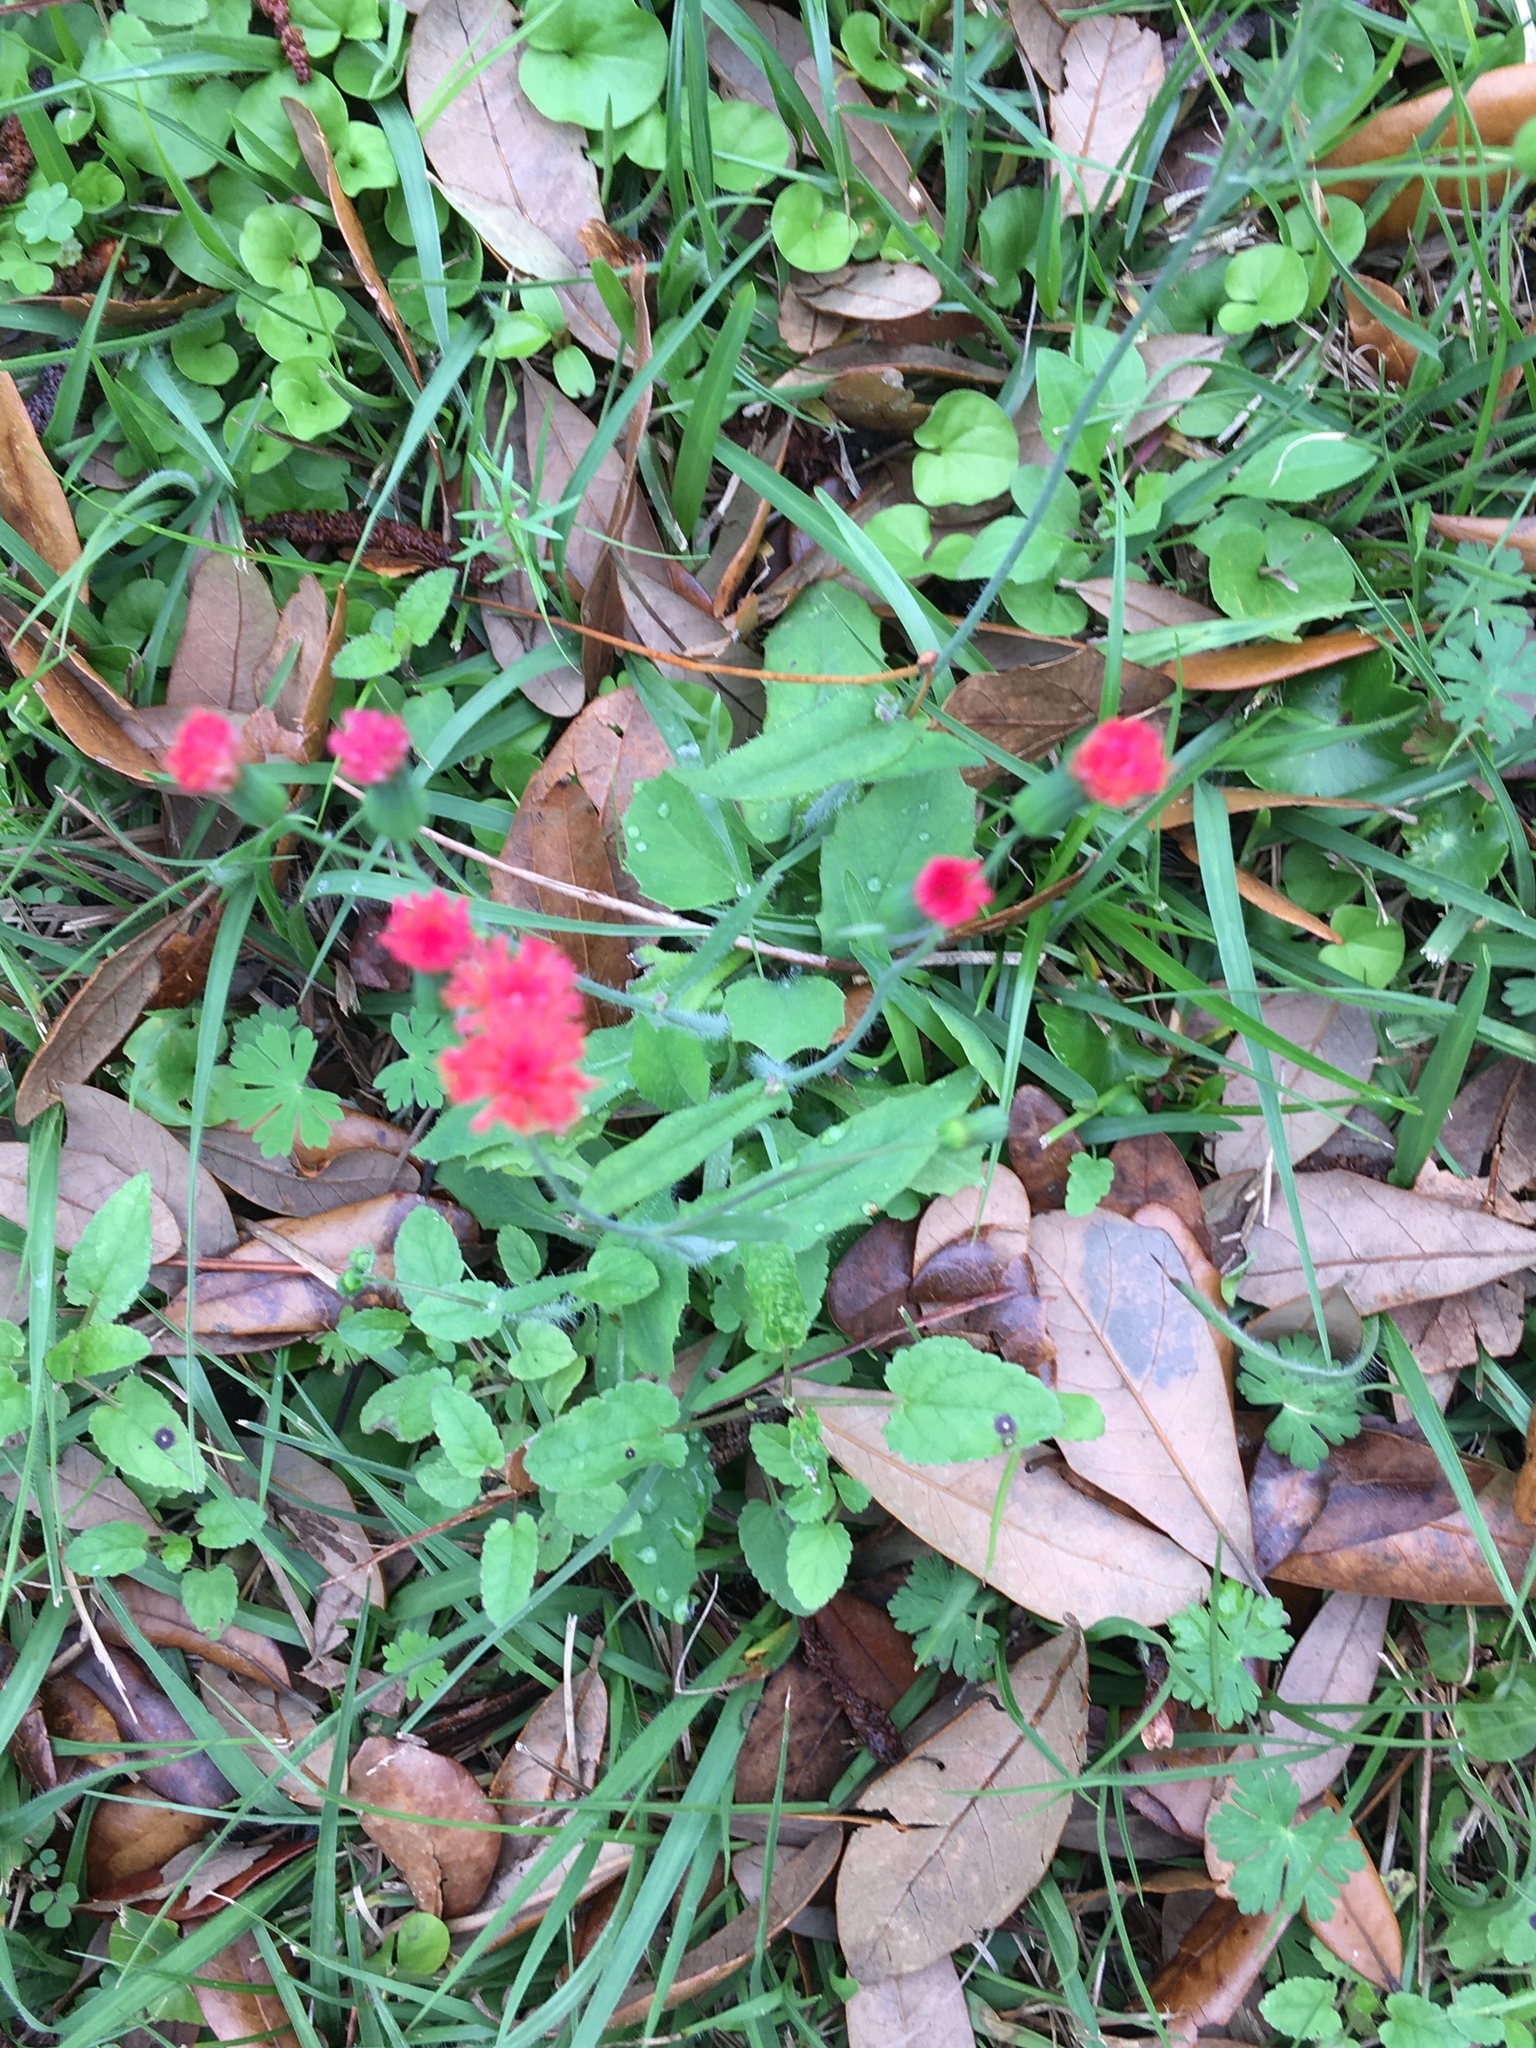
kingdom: Plantae
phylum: Tracheophyta
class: Magnoliopsida
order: Asterales
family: Asteraceae
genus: Emilia
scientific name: Emilia fosbergii
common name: Florida tasselflower
